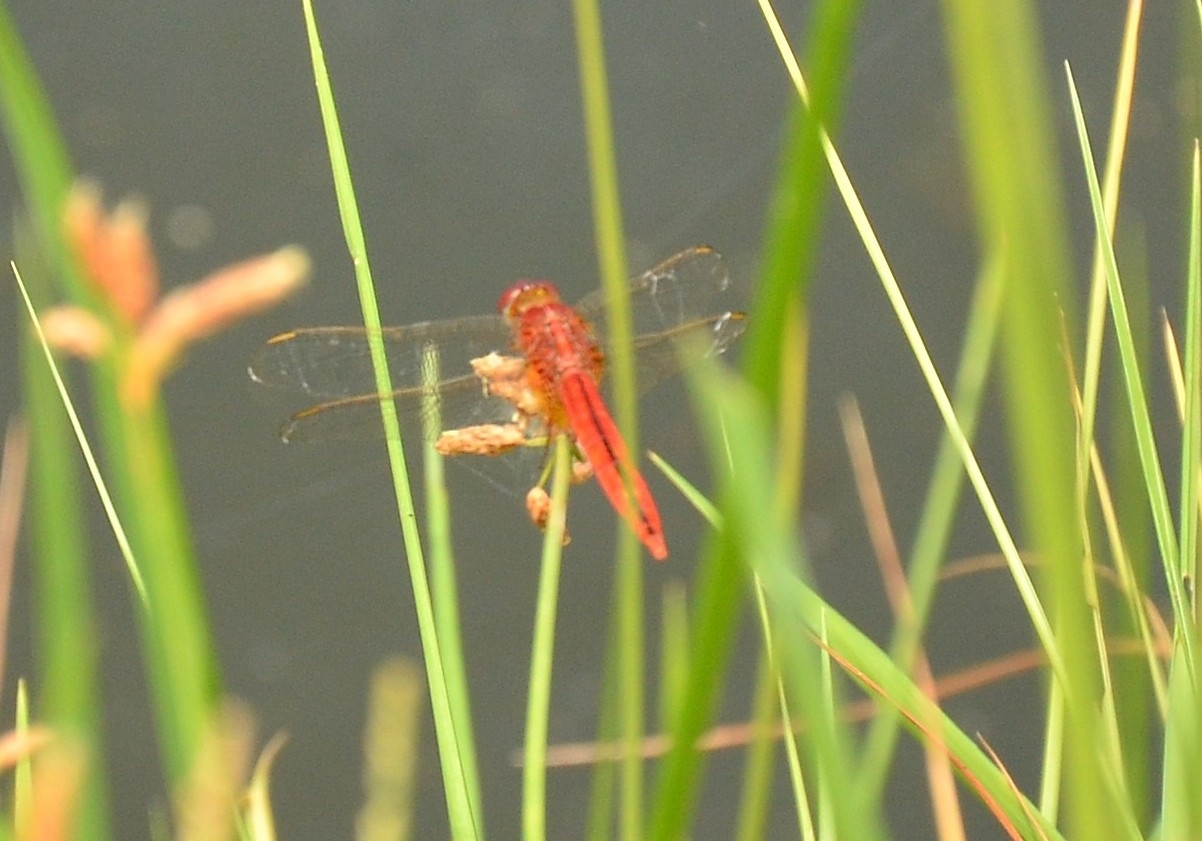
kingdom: Animalia
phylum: Arthropoda
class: Insecta
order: Odonata
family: Libellulidae
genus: Crocothemis
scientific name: Crocothemis servilia
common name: Scarlet skimmer
